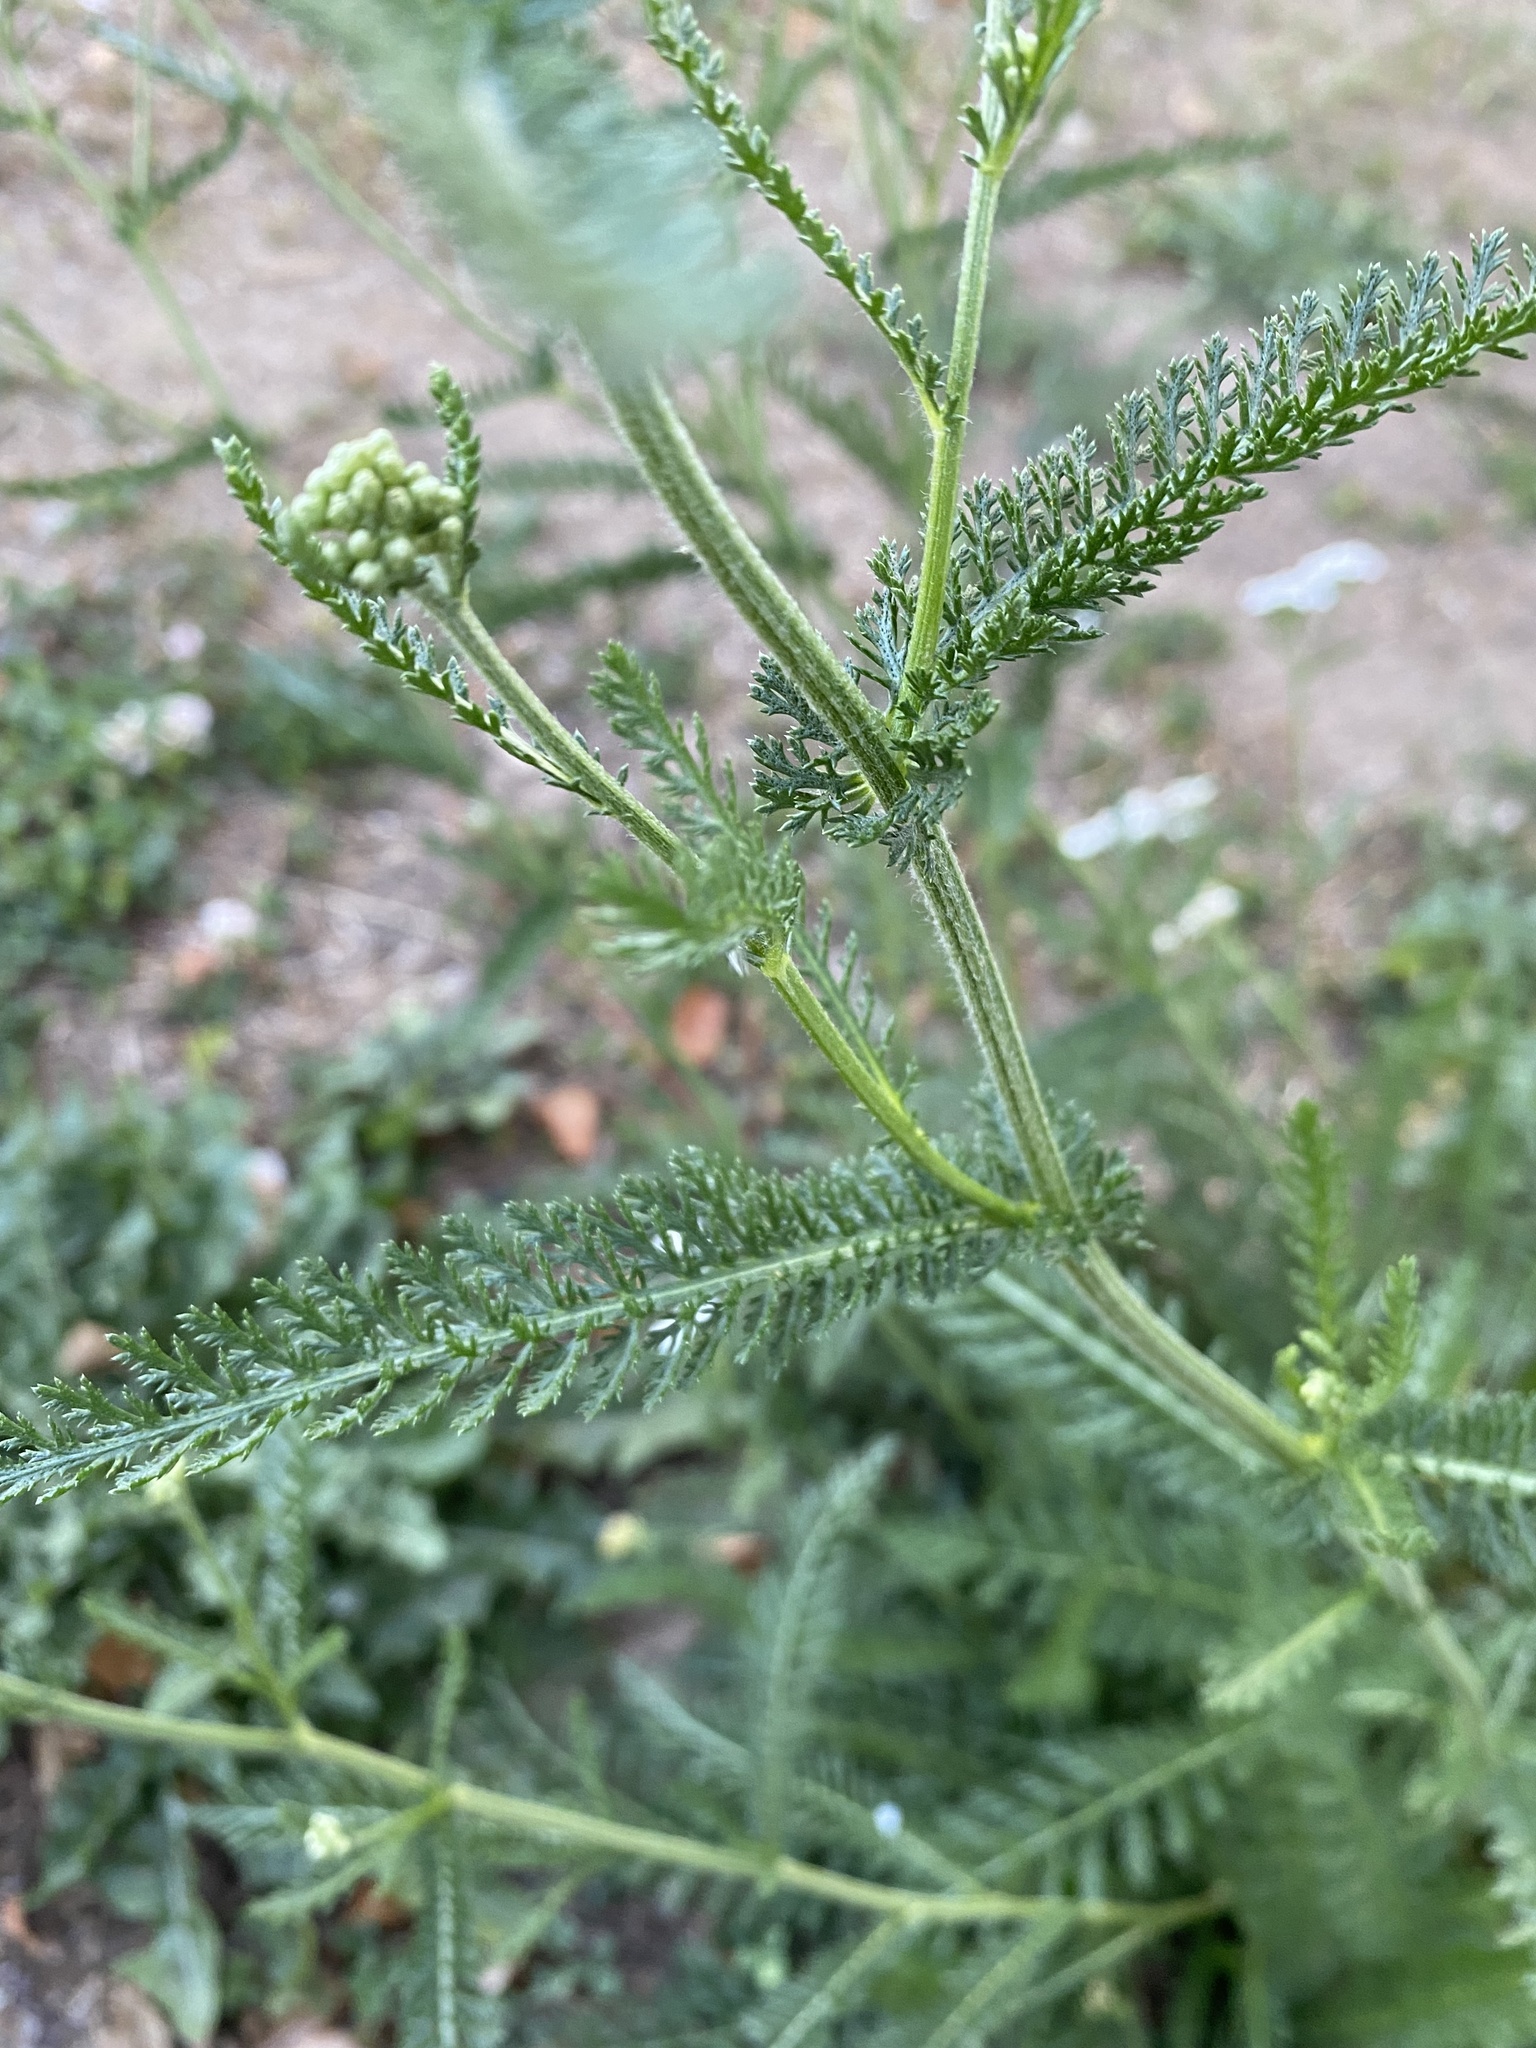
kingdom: Plantae
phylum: Tracheophyta
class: Magnoliopsida
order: Asterales
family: Asteraceae
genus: Achillea
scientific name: Achillea millefolium
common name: Yarrow
